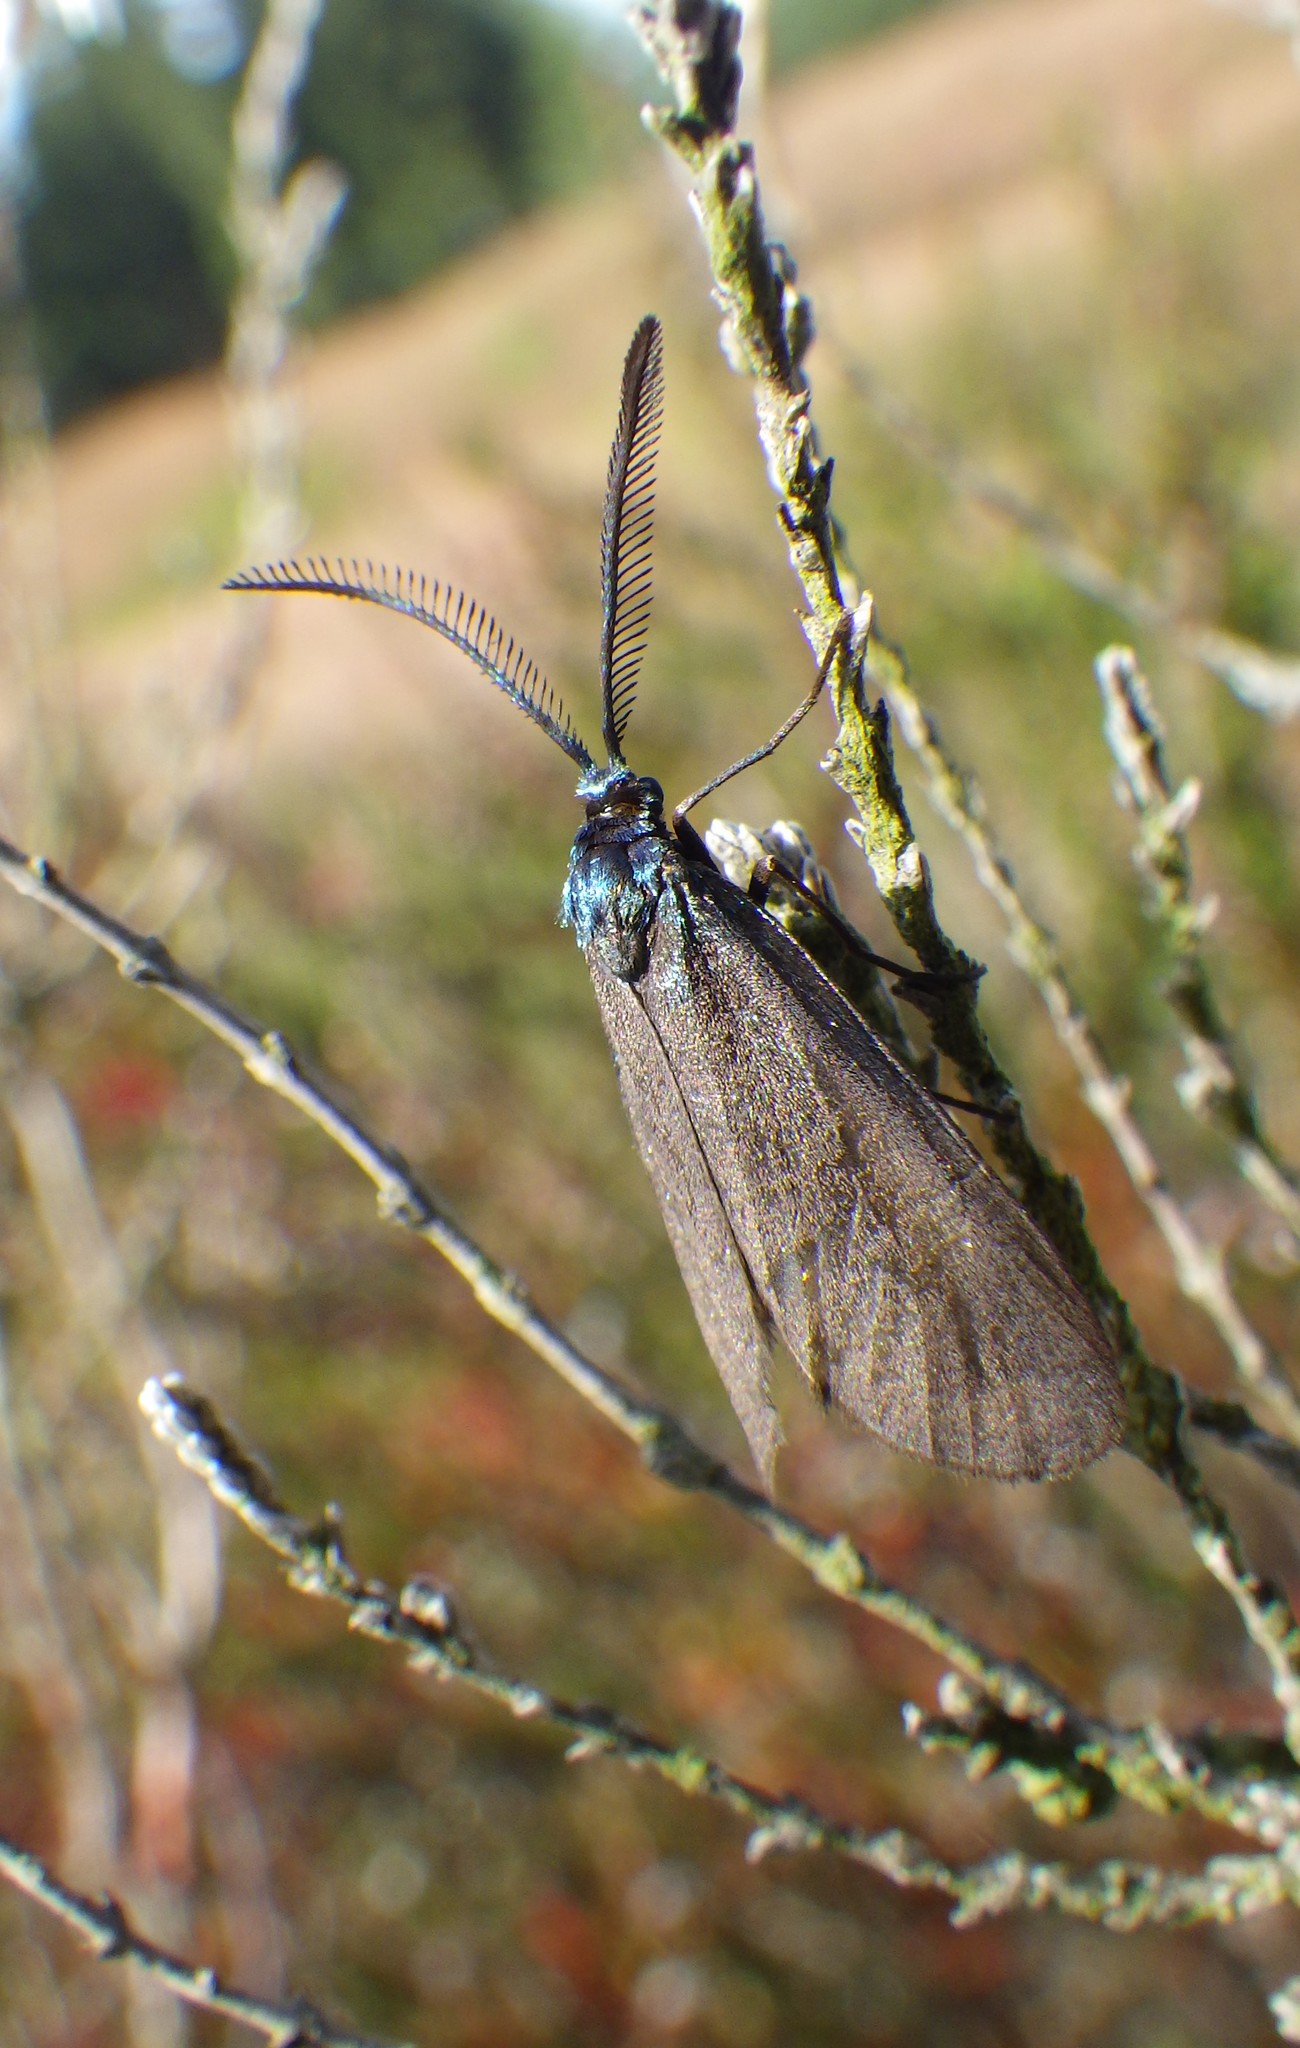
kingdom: Animalia
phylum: Arthropoda
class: Insecta
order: Lepidoptera
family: Zygaenidae
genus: Rhagades
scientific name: Rhagades pruni
